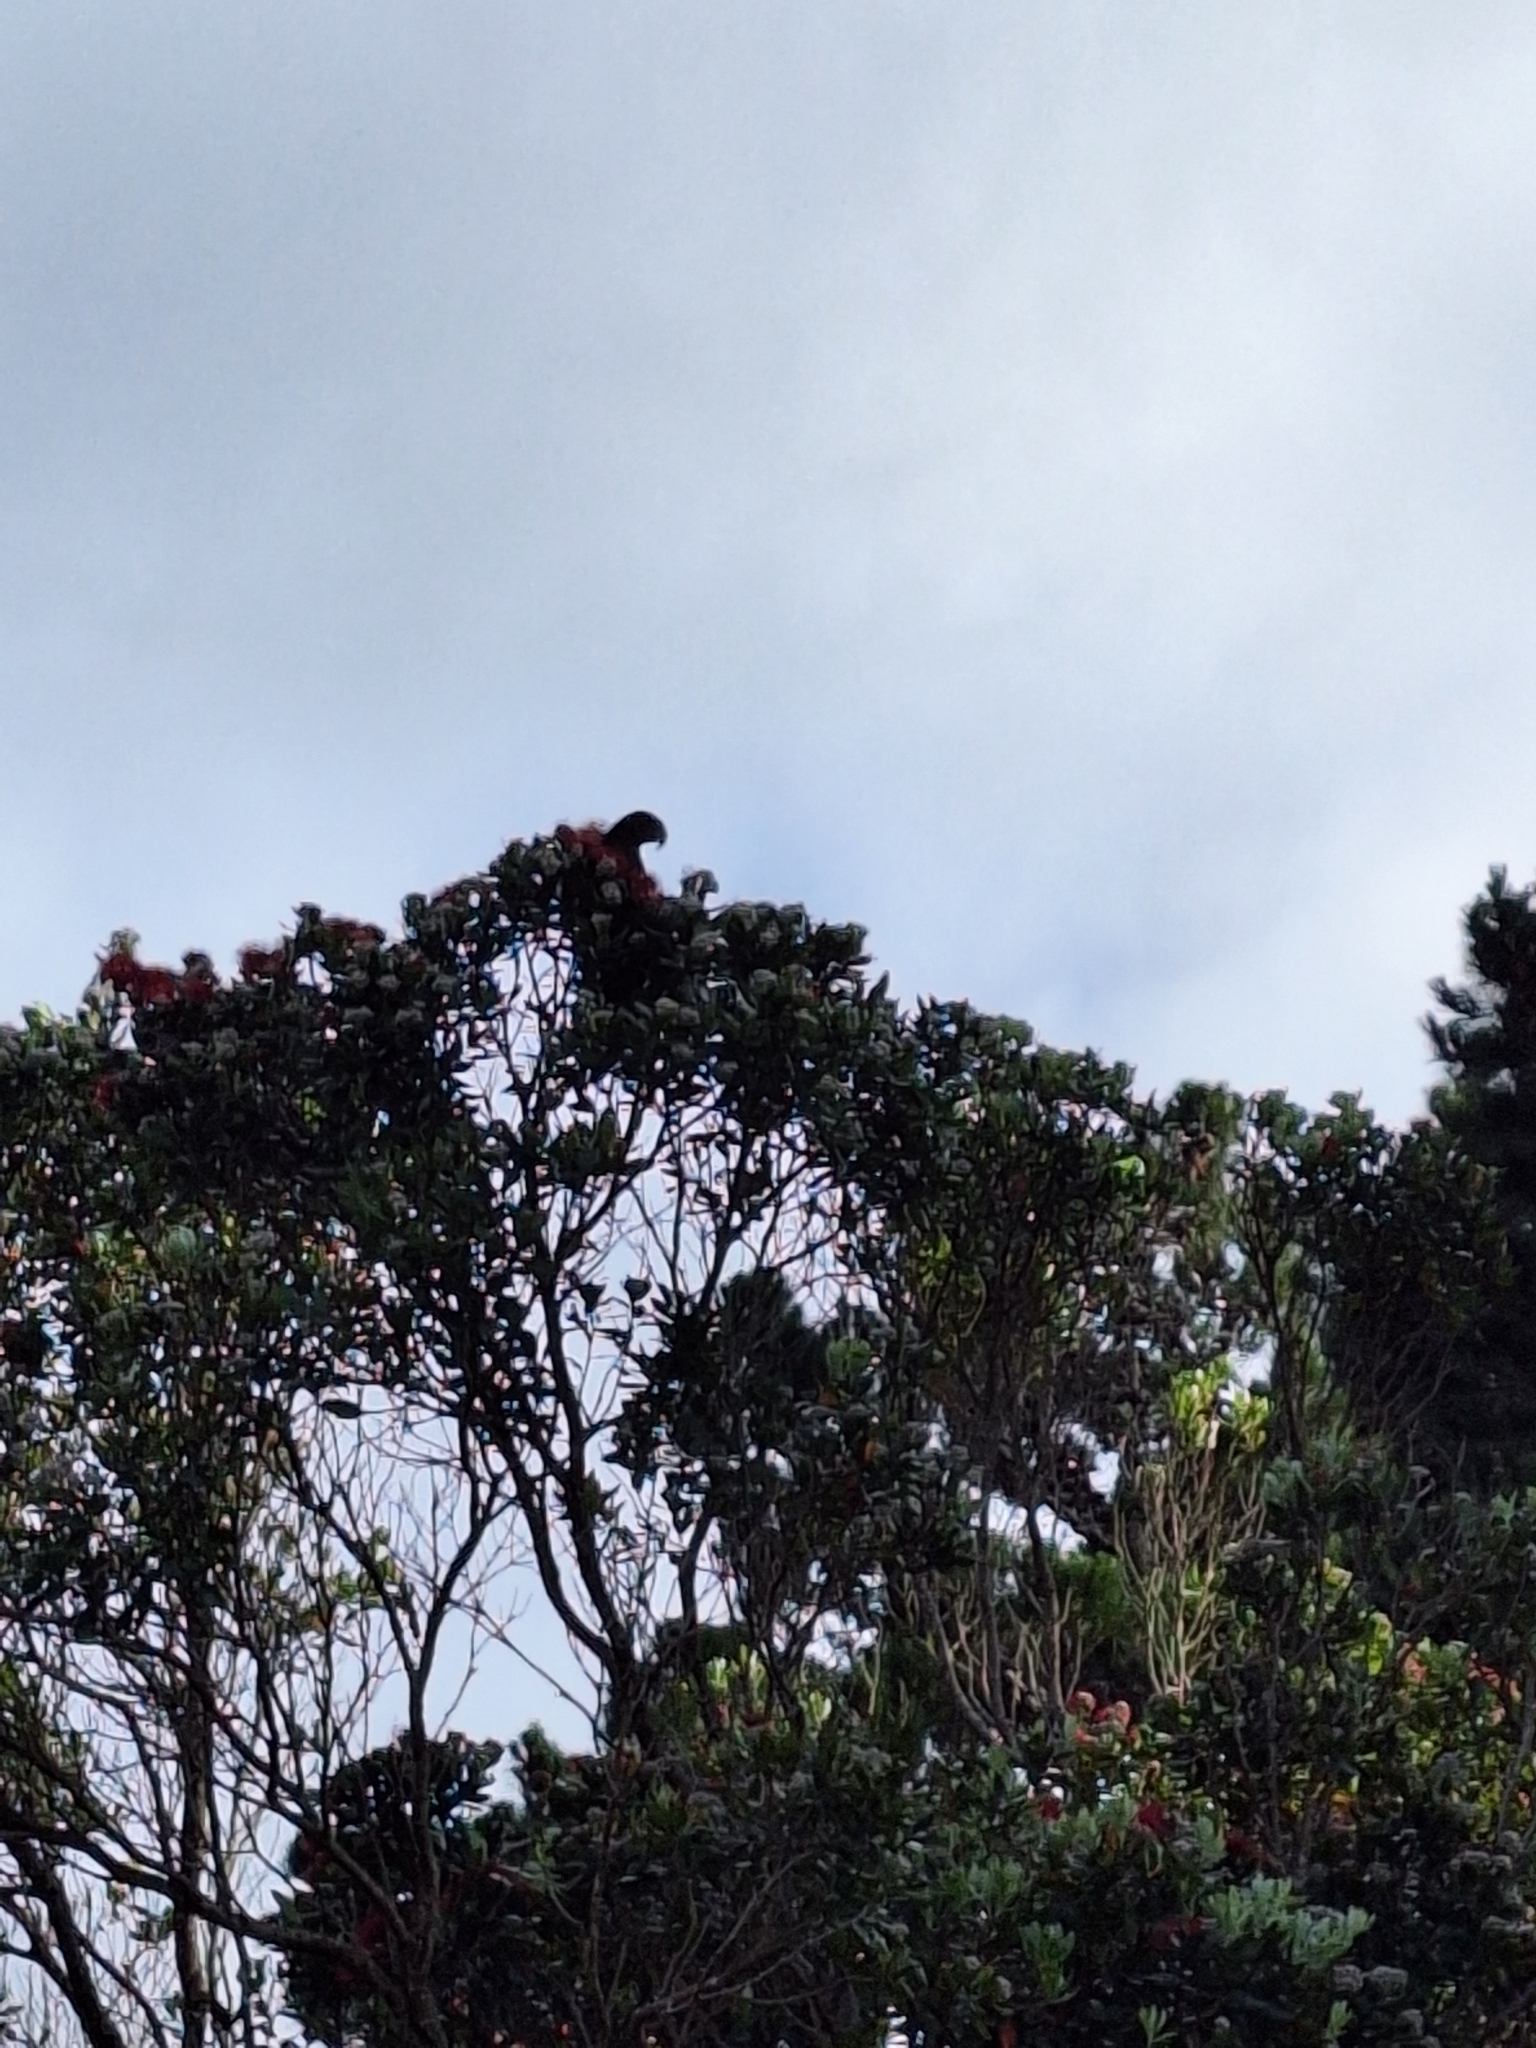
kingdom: Animalia
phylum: Chordata
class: Aves
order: Psittaciformes
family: Psittacidae
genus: Nestor
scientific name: Nestor meridionalis
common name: New zealand kaka
